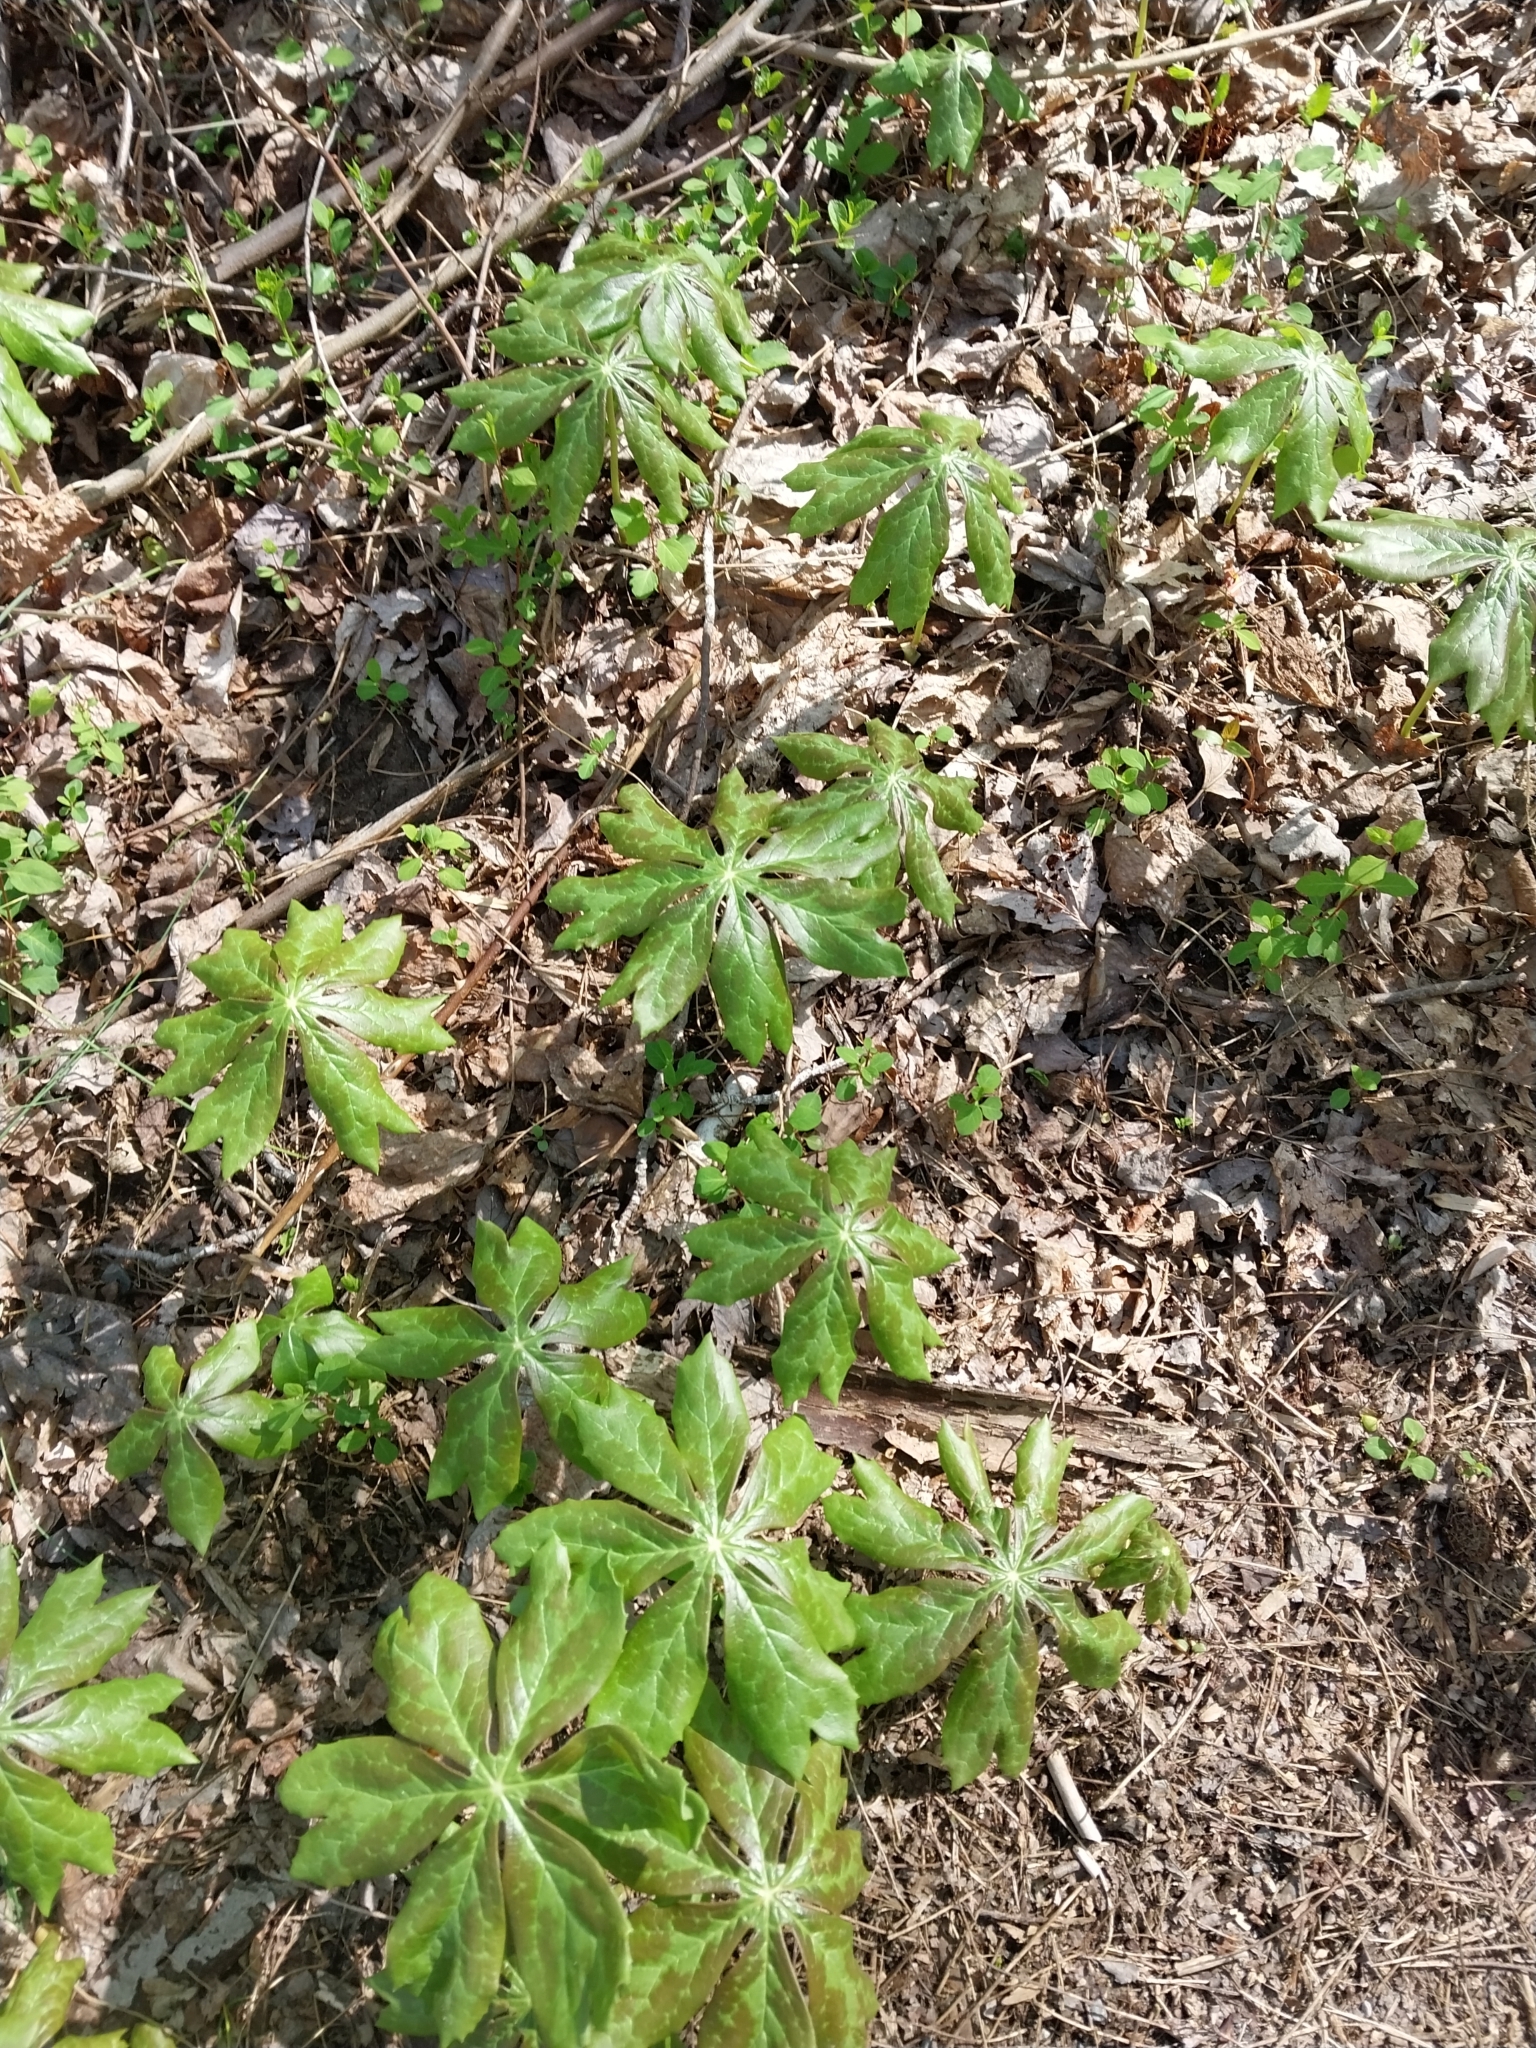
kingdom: Plantae
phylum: Tracheophyta
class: Magnoliopsida
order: Ranunculales
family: Berberidaceae
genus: Podophyllum
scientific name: Podophyllum peltatum
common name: Wild mandrake
